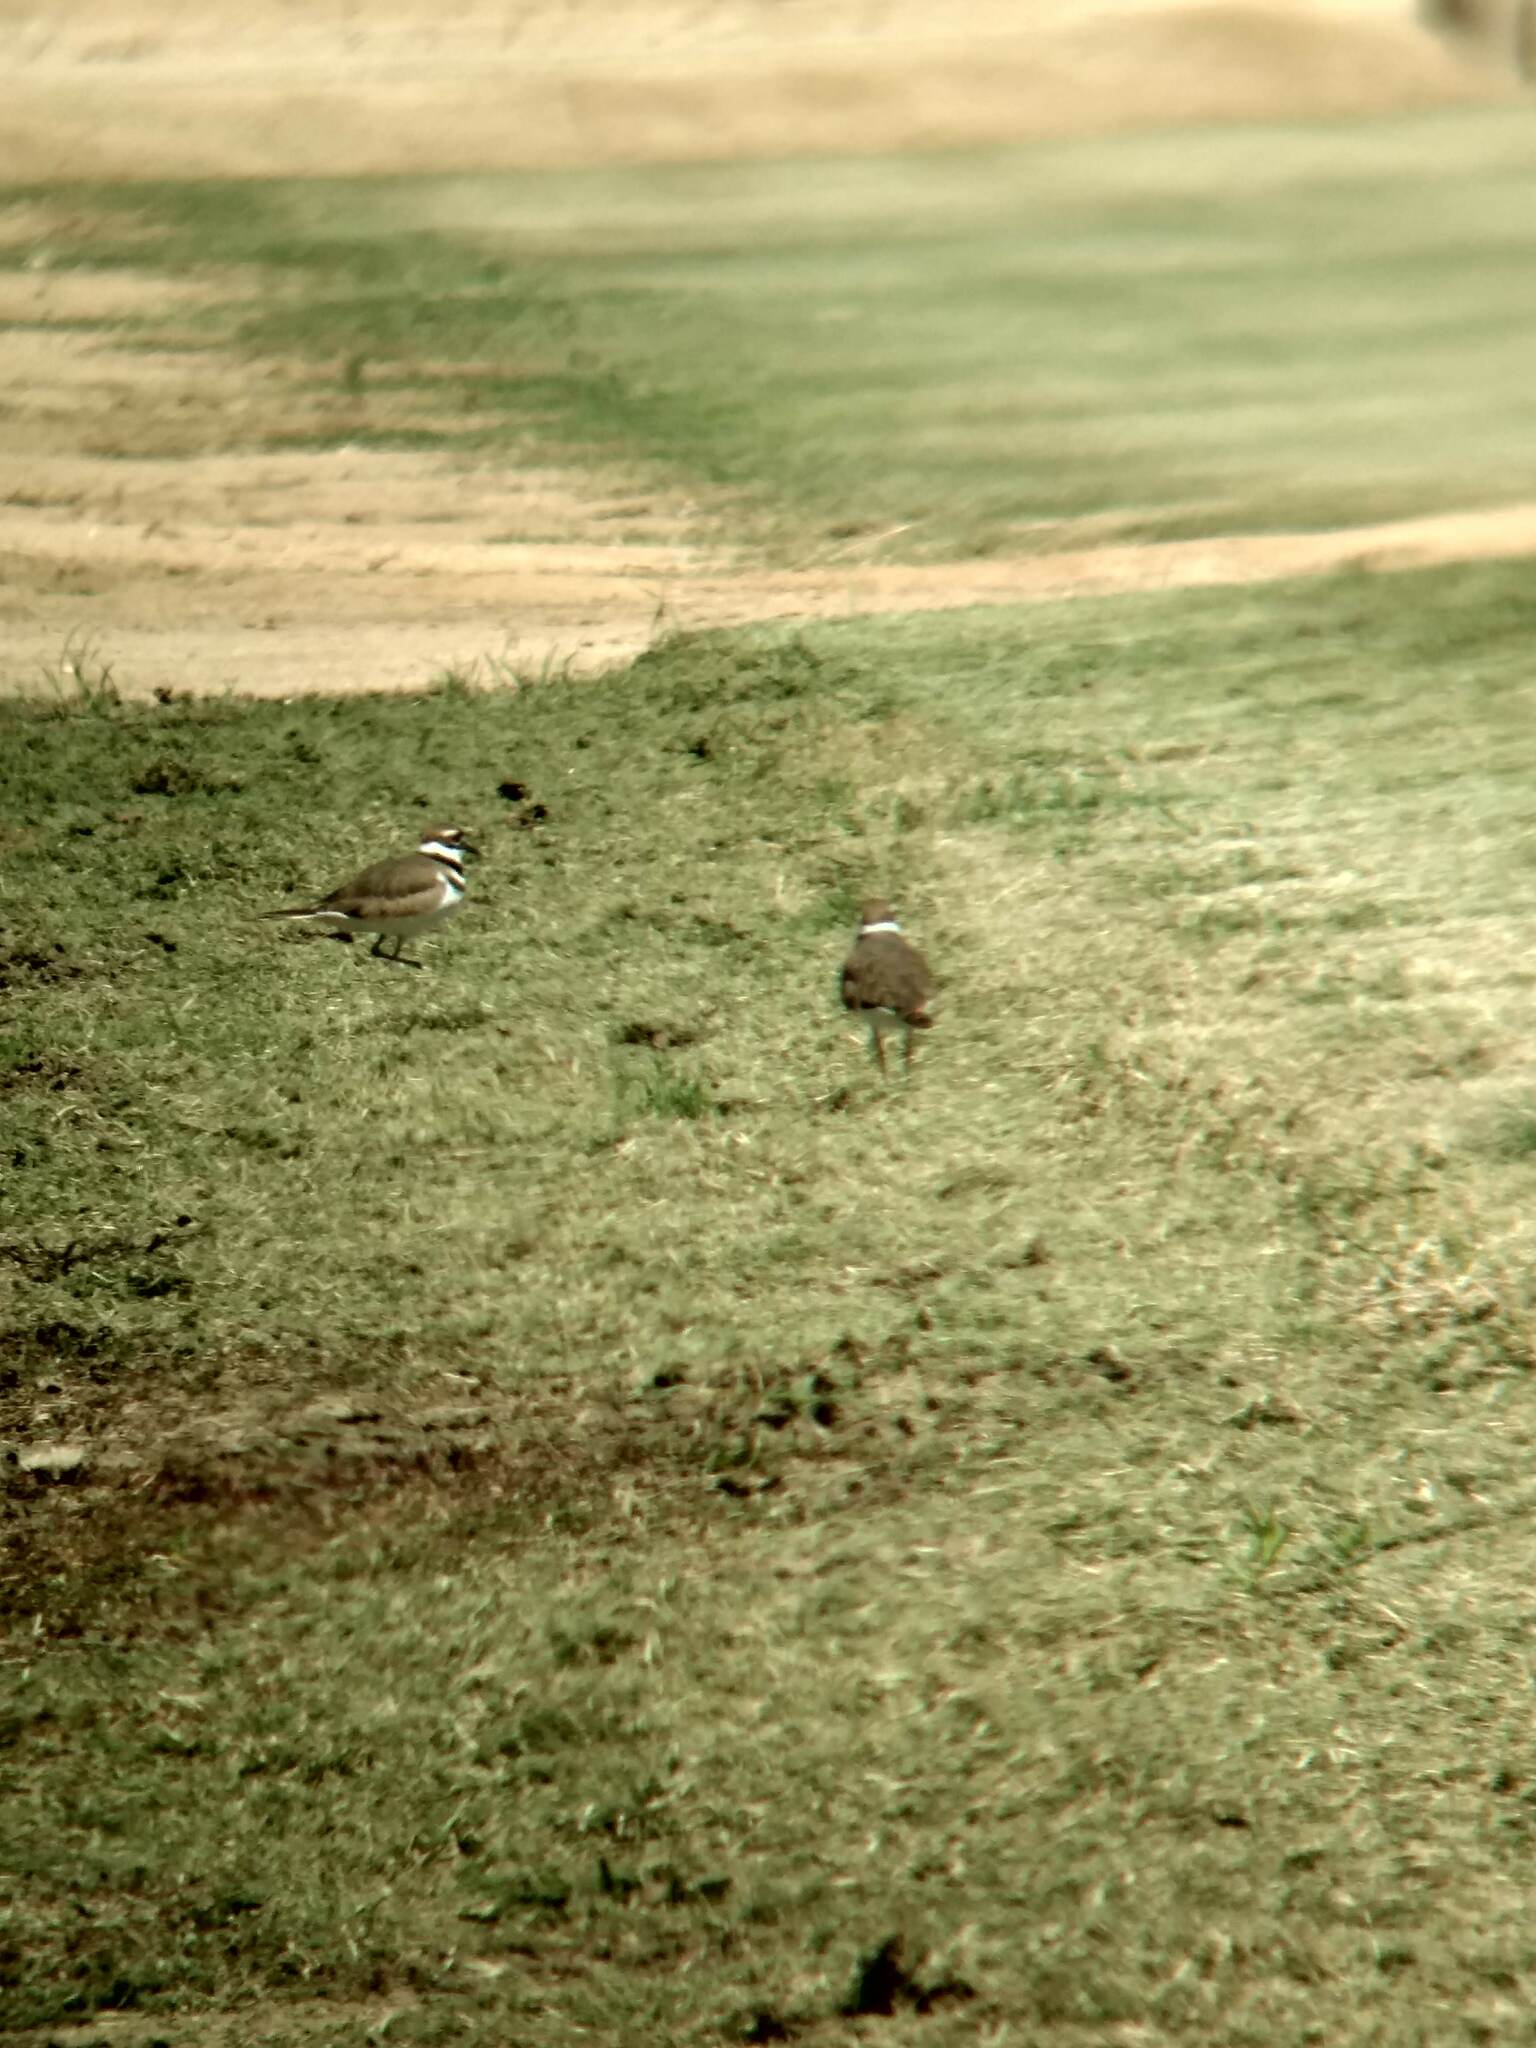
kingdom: Animalia
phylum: Chordata
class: Aves
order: Charadriiformes
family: Charadriidae
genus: Charadrius
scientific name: Charadrius vociferus
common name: Killdeer
